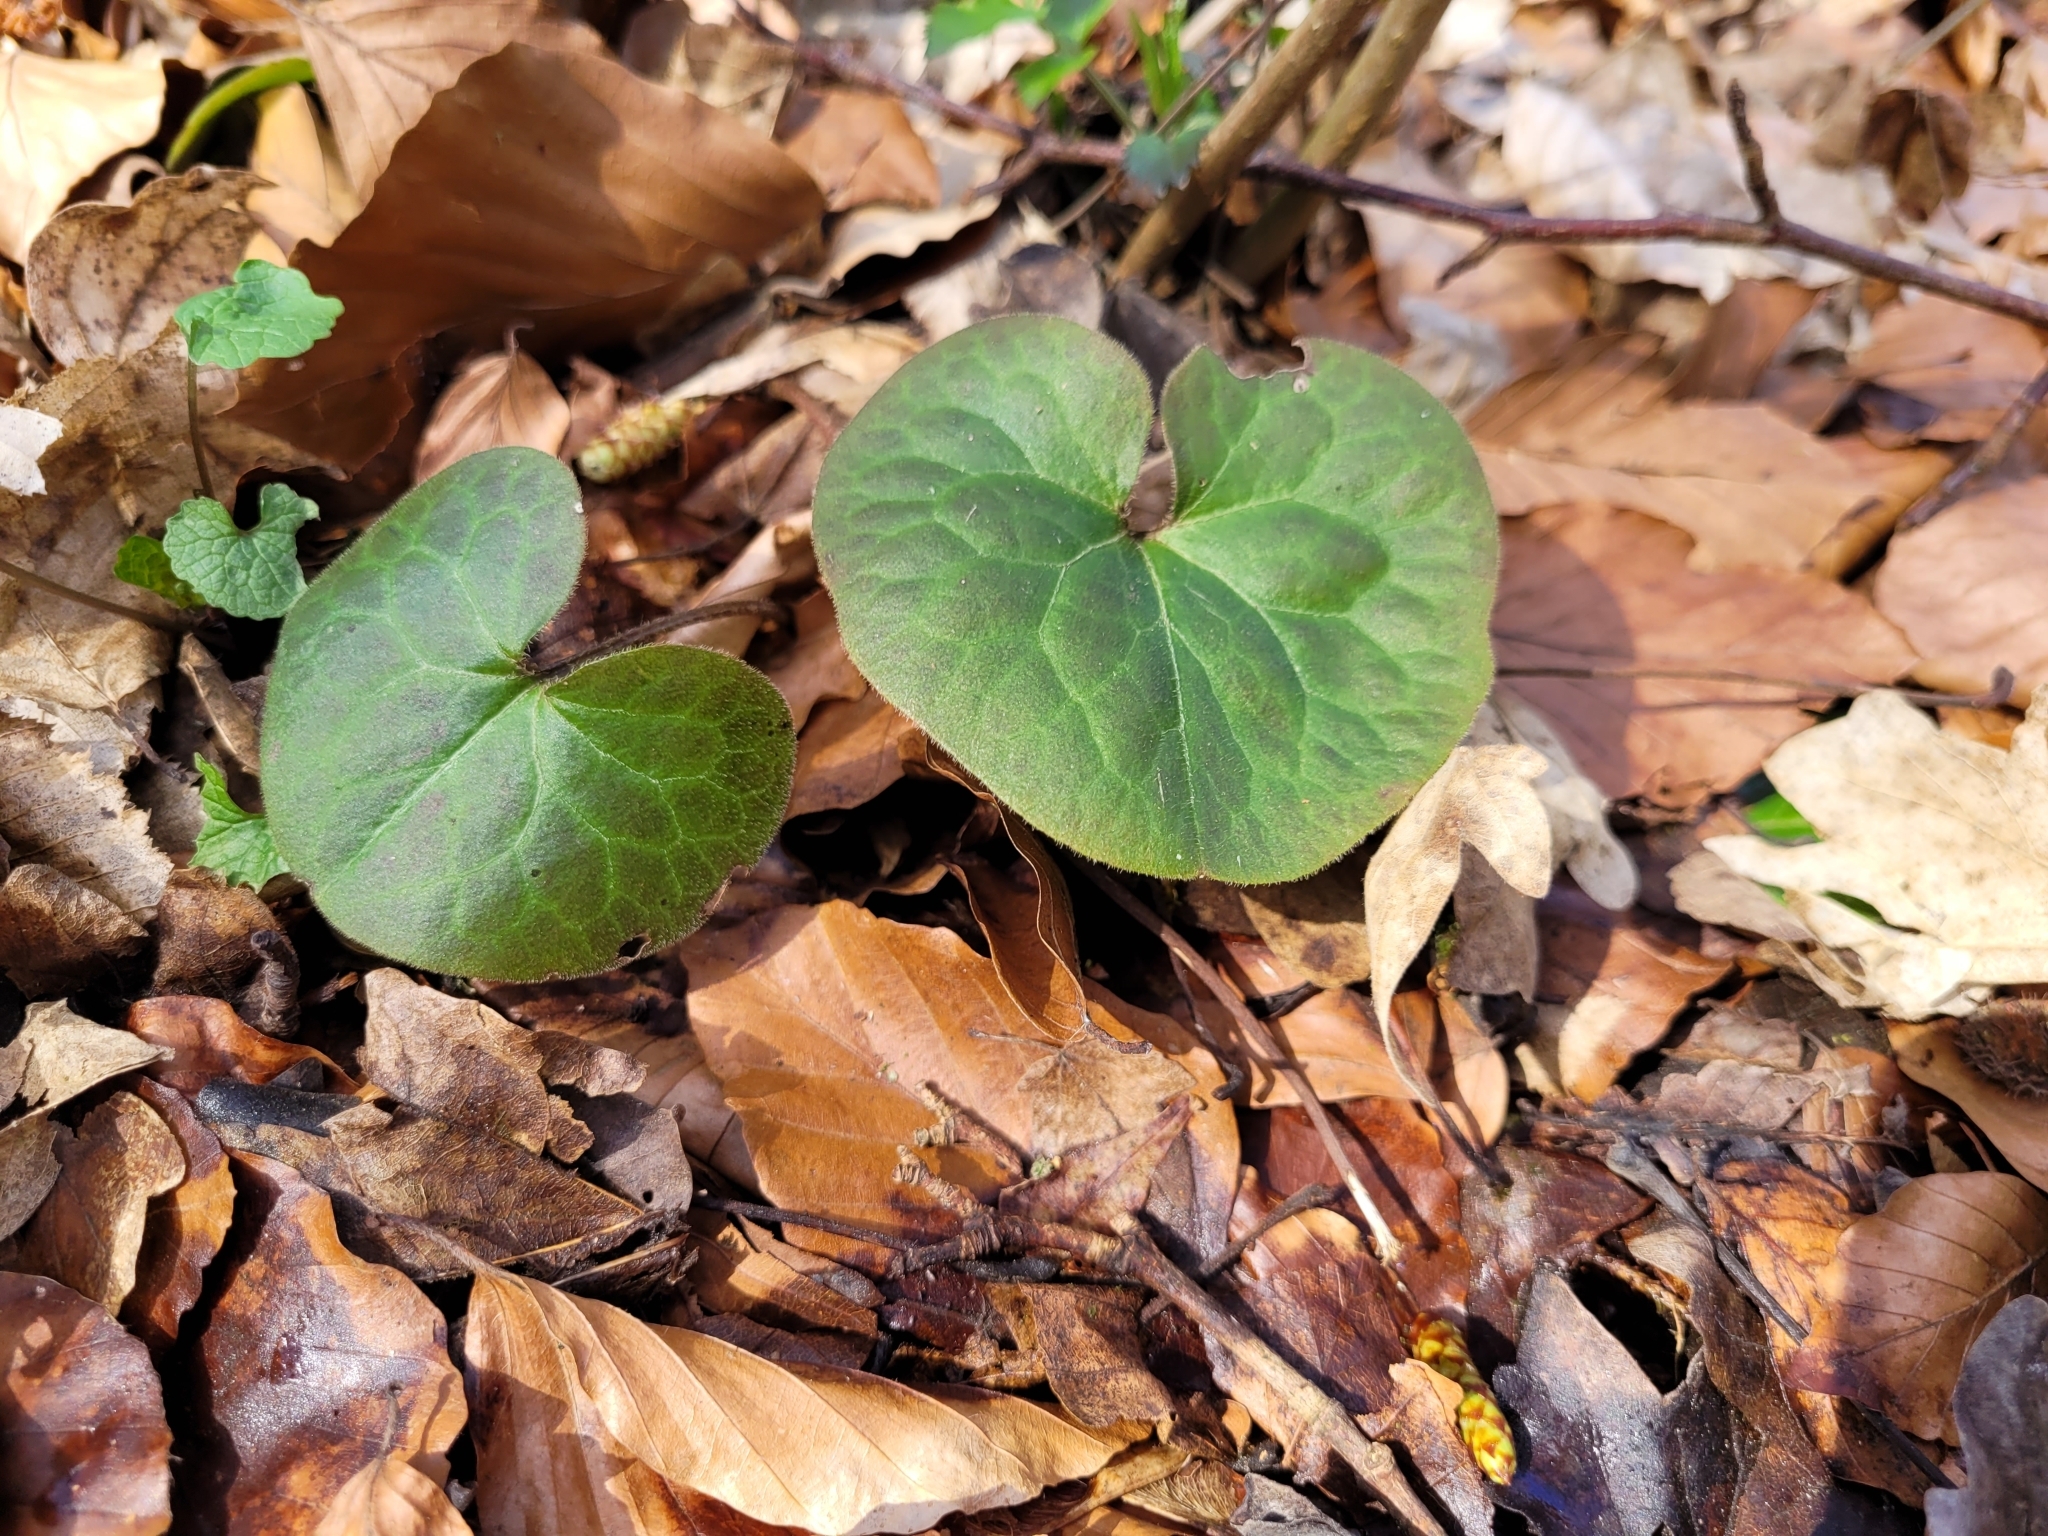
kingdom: Plantae
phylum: Tracheophyta
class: Magnoliopsida
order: Piperales
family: Aristolochiaceae
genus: Asarum
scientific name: Asarum europaeum
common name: Asarabacca
